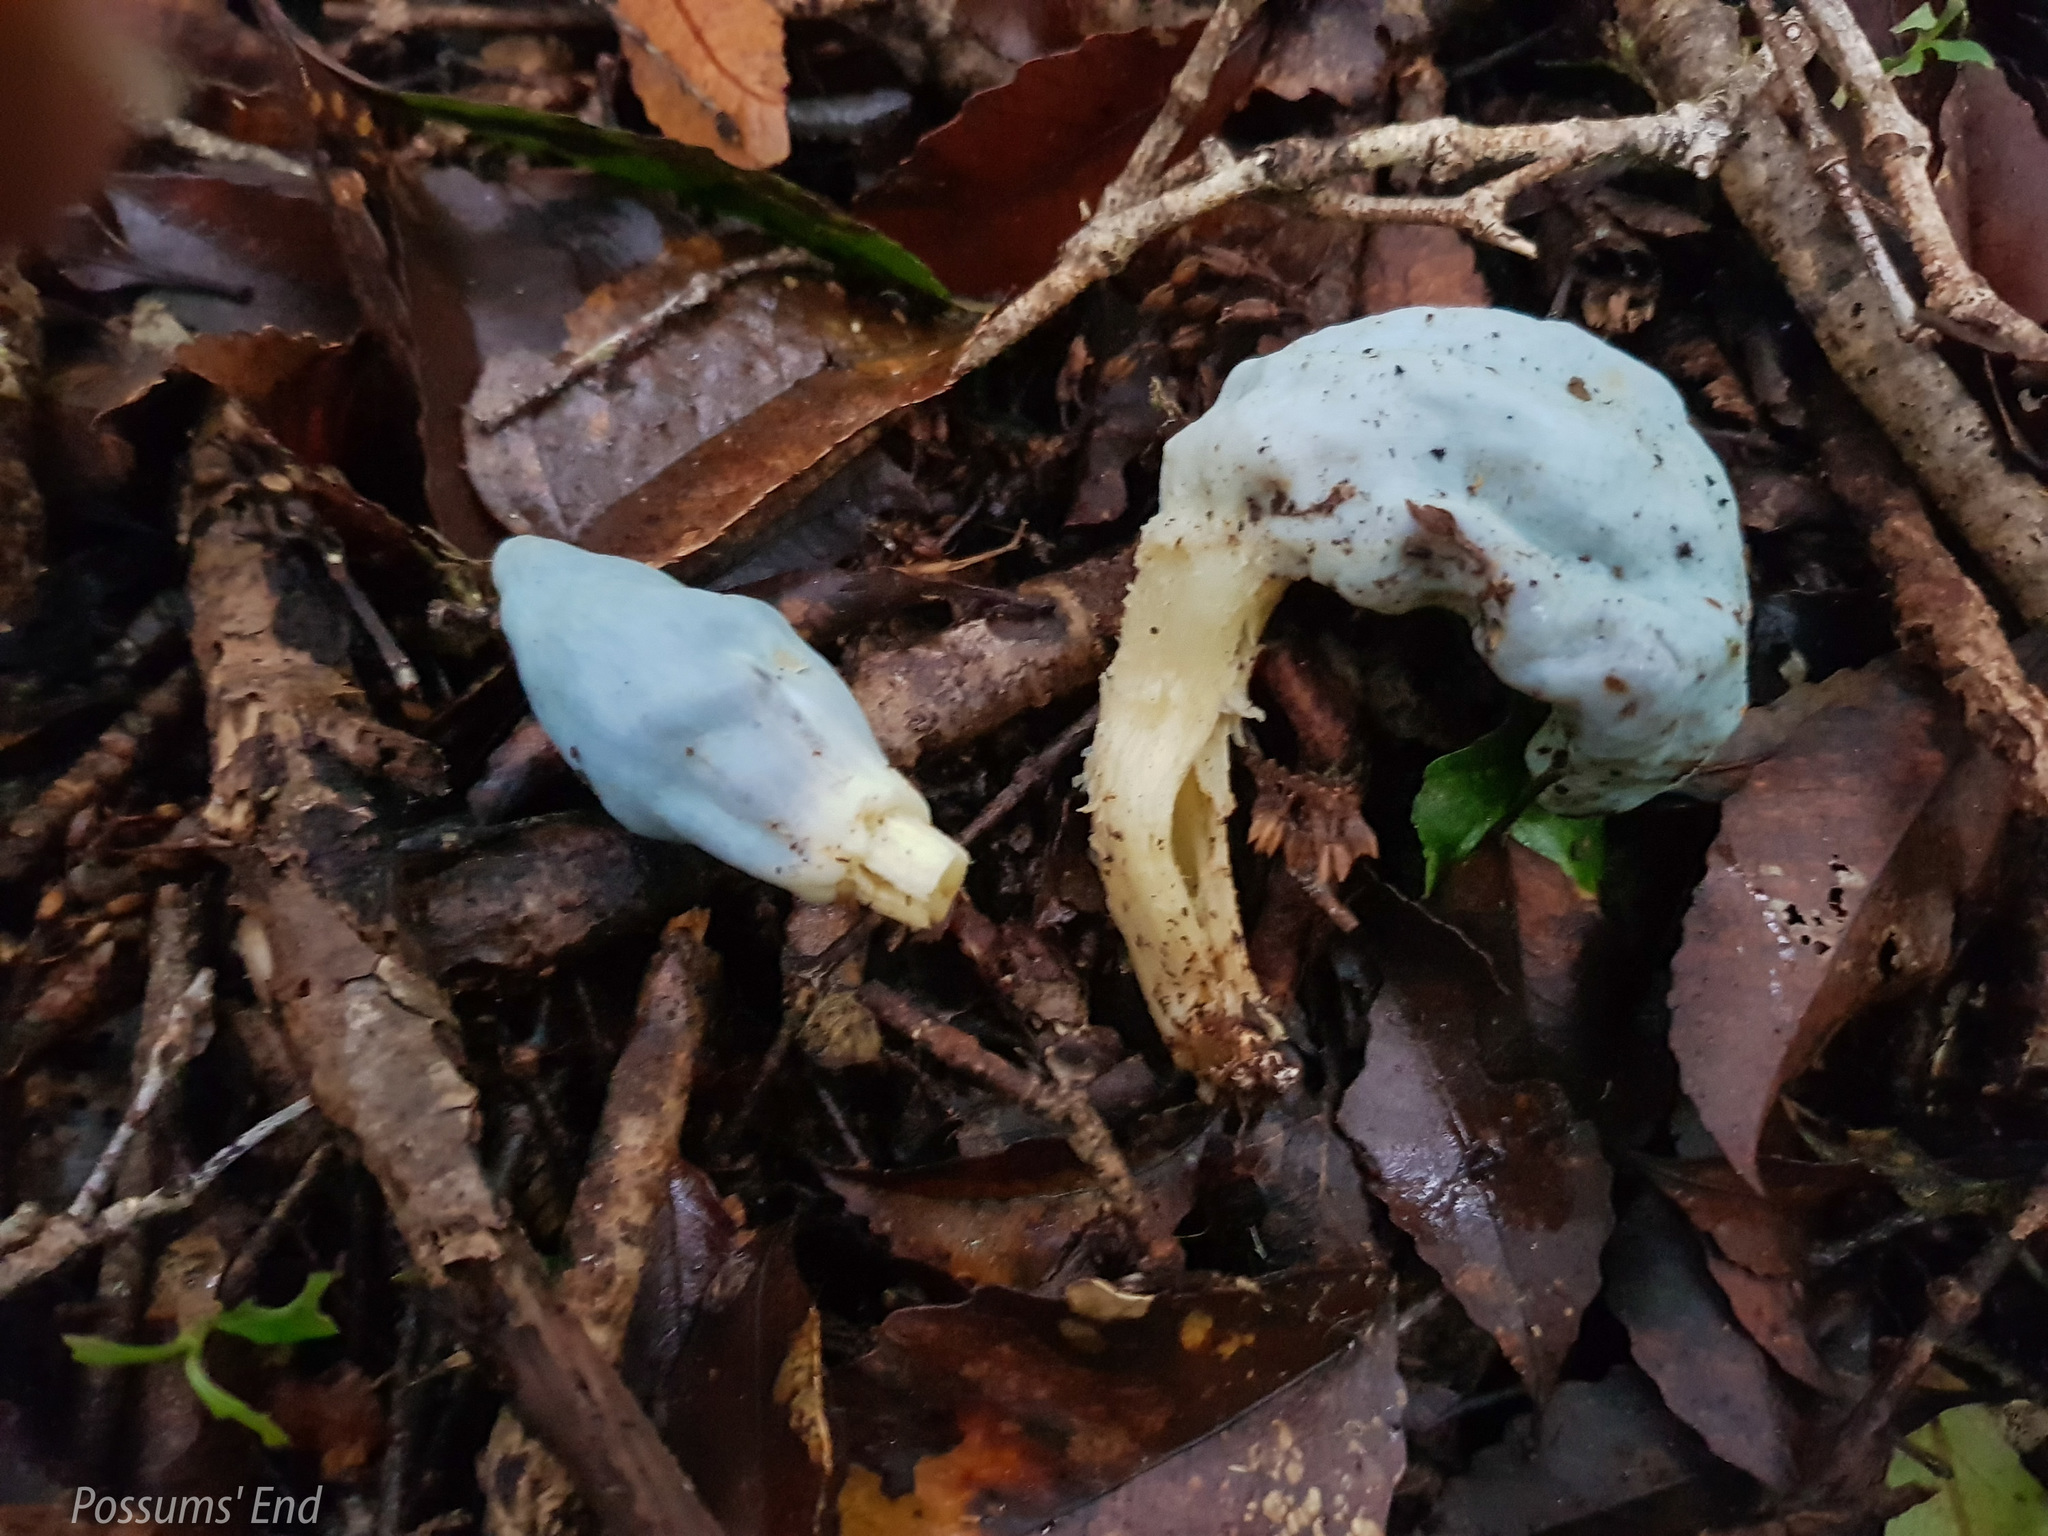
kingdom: Fungi
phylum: Basidiomycota
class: Agaricomycetes
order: Agaricales
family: Agaricaceae
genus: Clavogaster
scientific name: Clavogaster virescens
